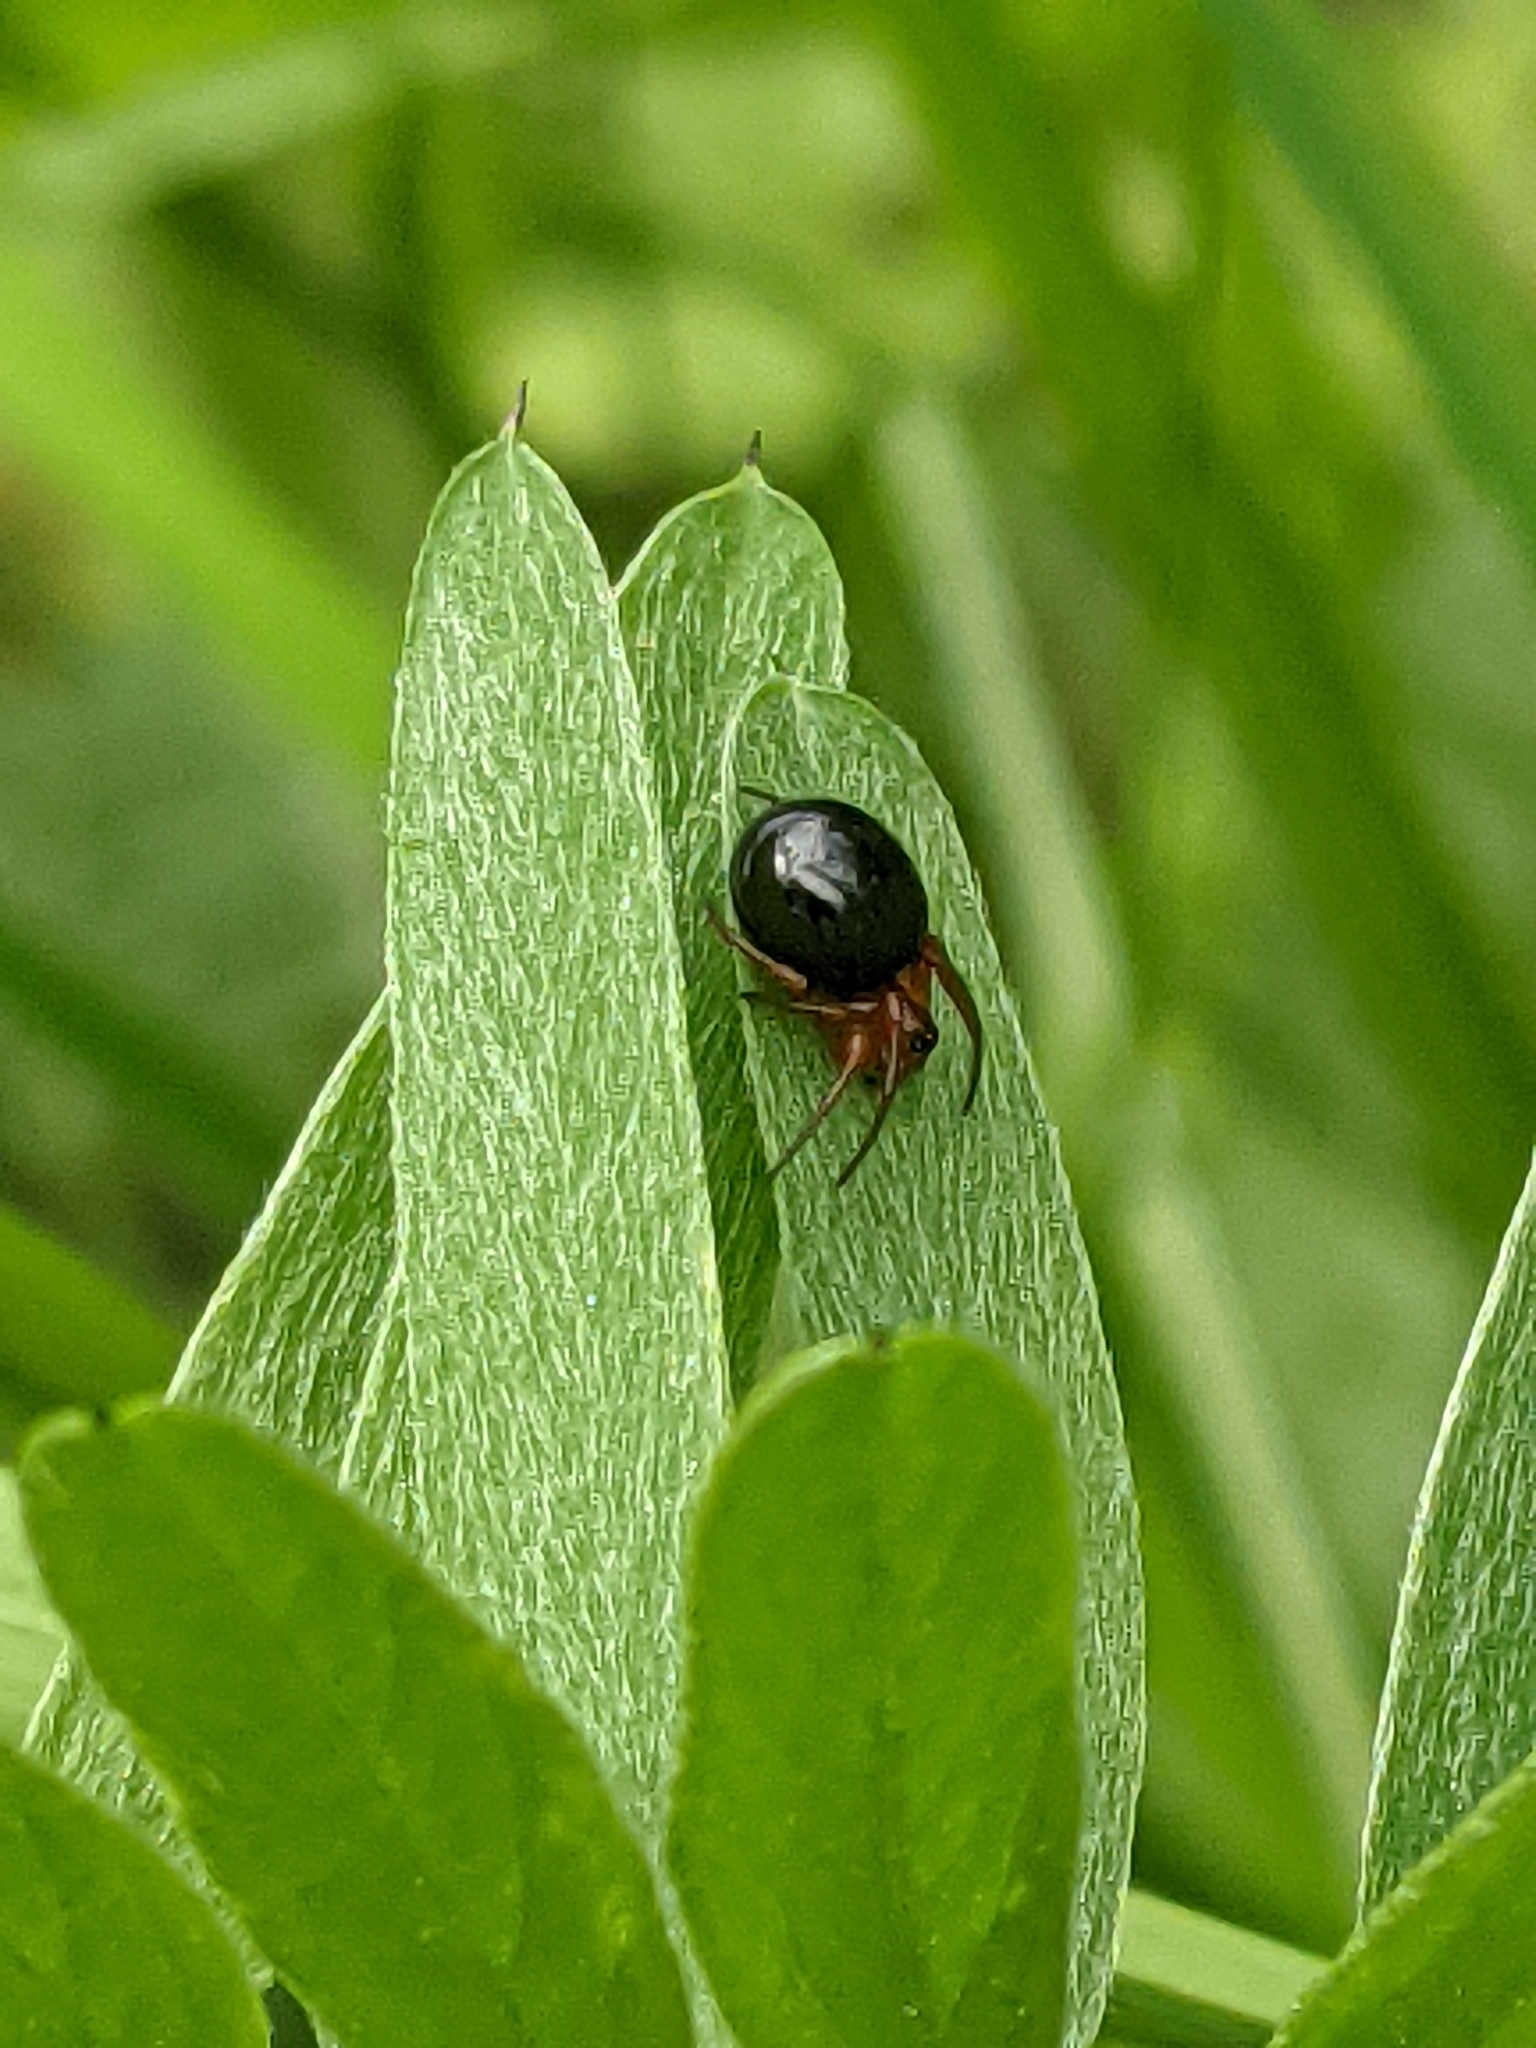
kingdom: Animalia
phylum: Arthropoda
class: Arachnida
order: Araneae
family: Linyphiidae
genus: Hypselistes
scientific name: Hypselistes florens
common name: Peatland sheetweb weaver
